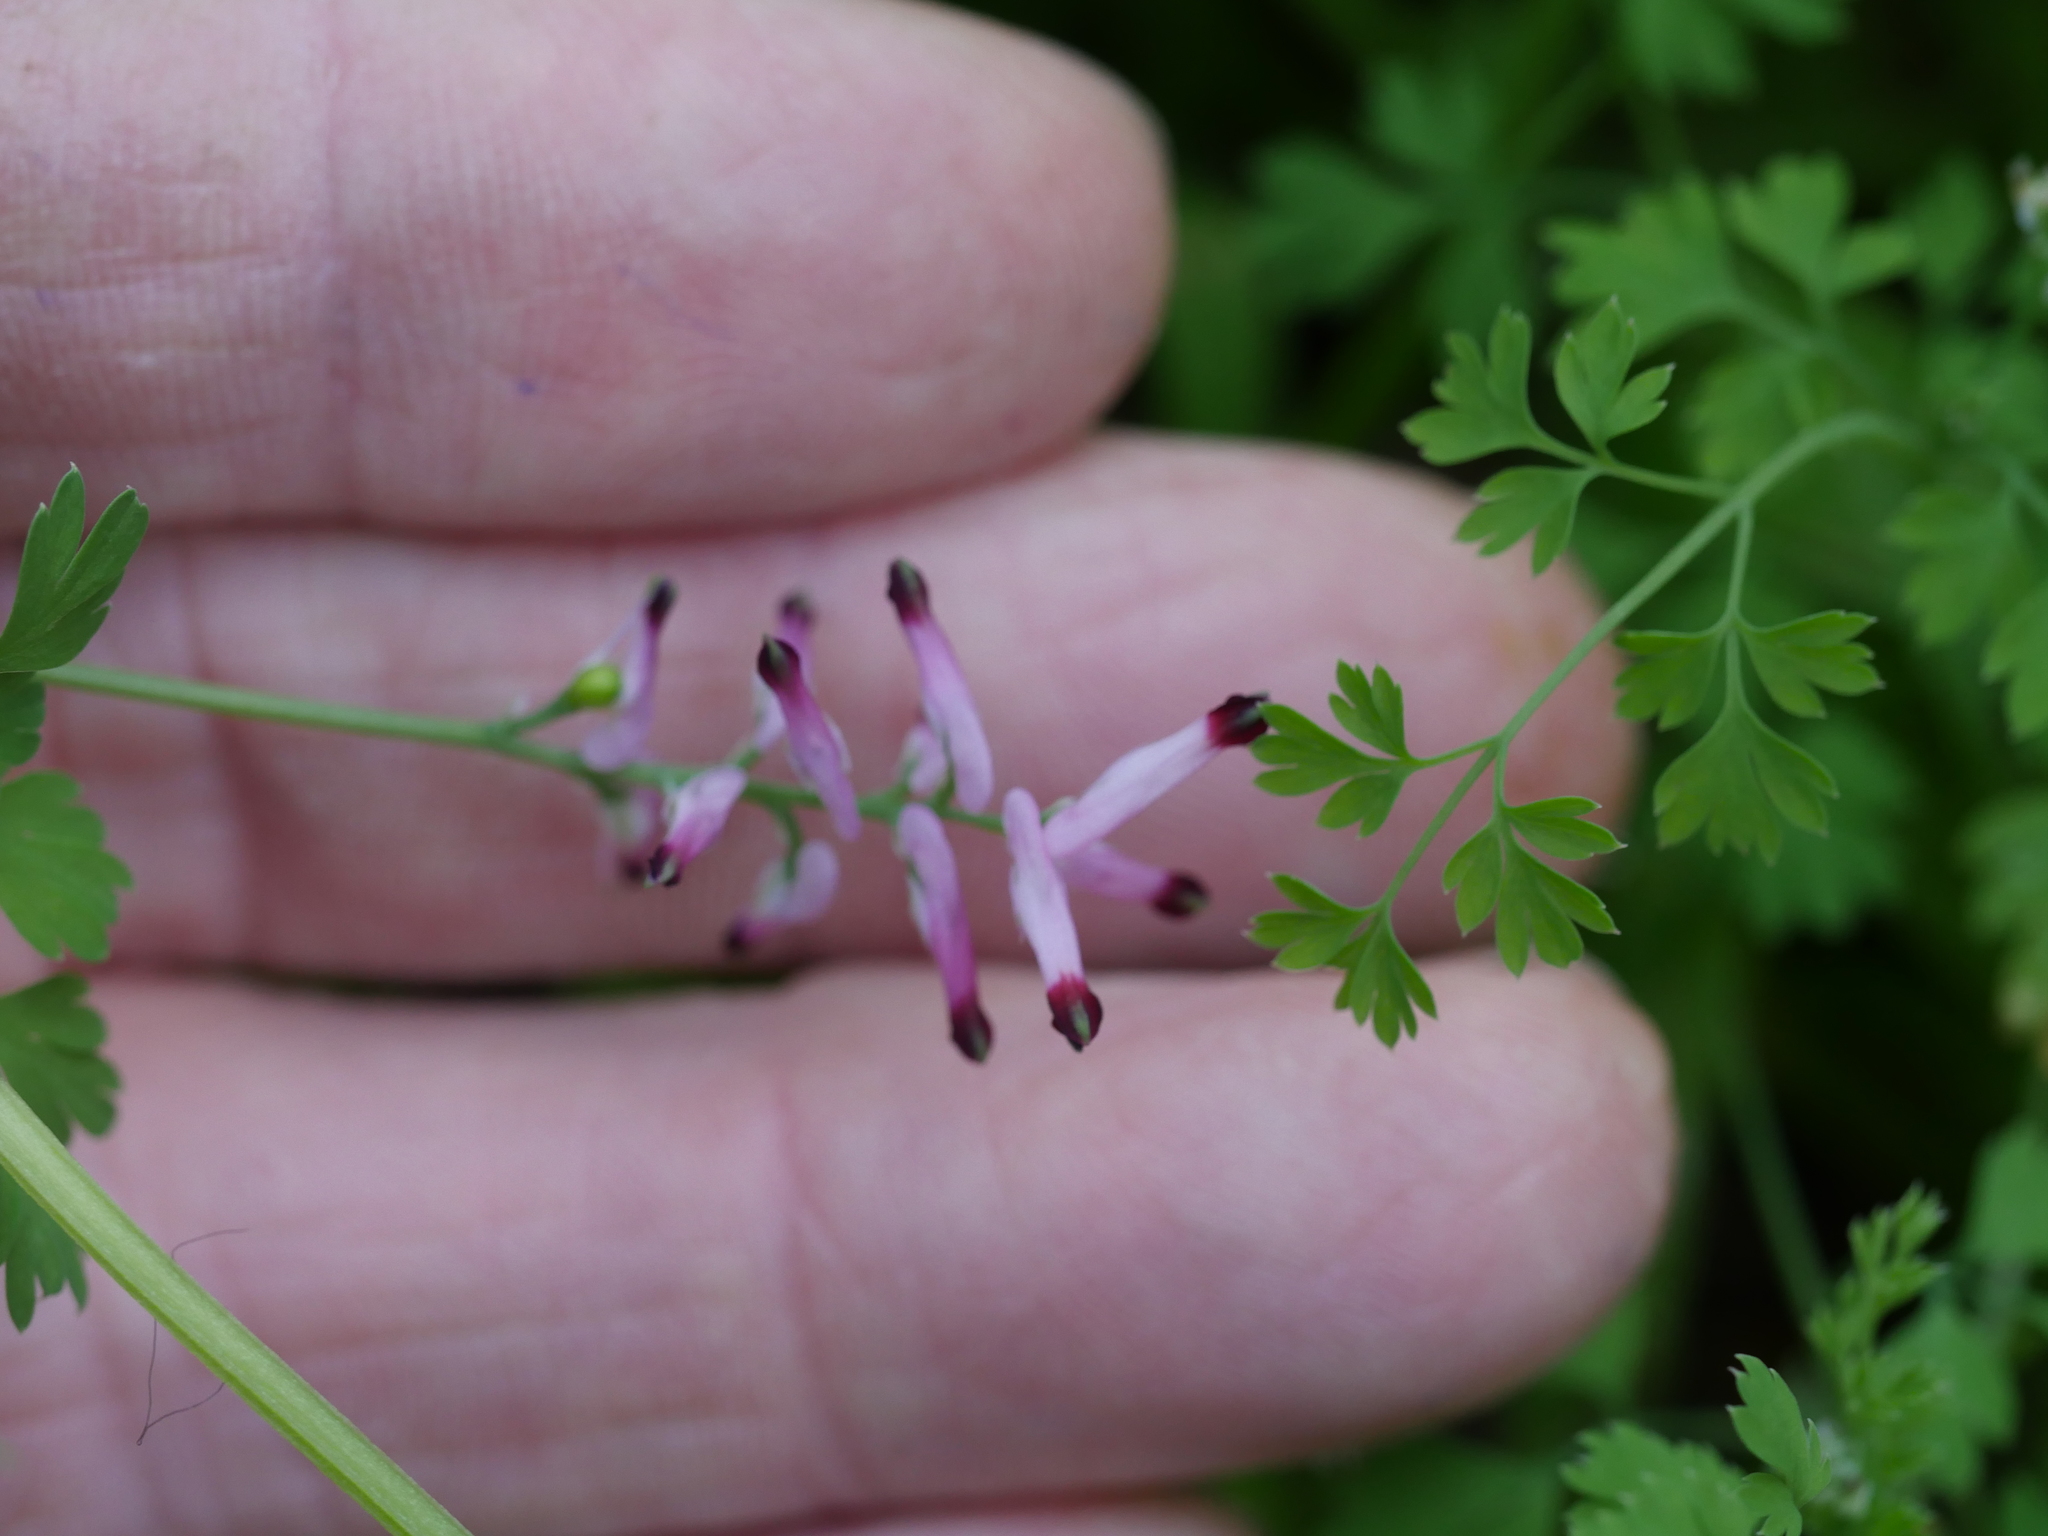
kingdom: Plantae
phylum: Tracheophyta
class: Magnoliopsida
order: Ranunculales
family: Papaveraceae
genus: Fumaria
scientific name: Fumaria muralis
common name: Common ramping-fumitory
